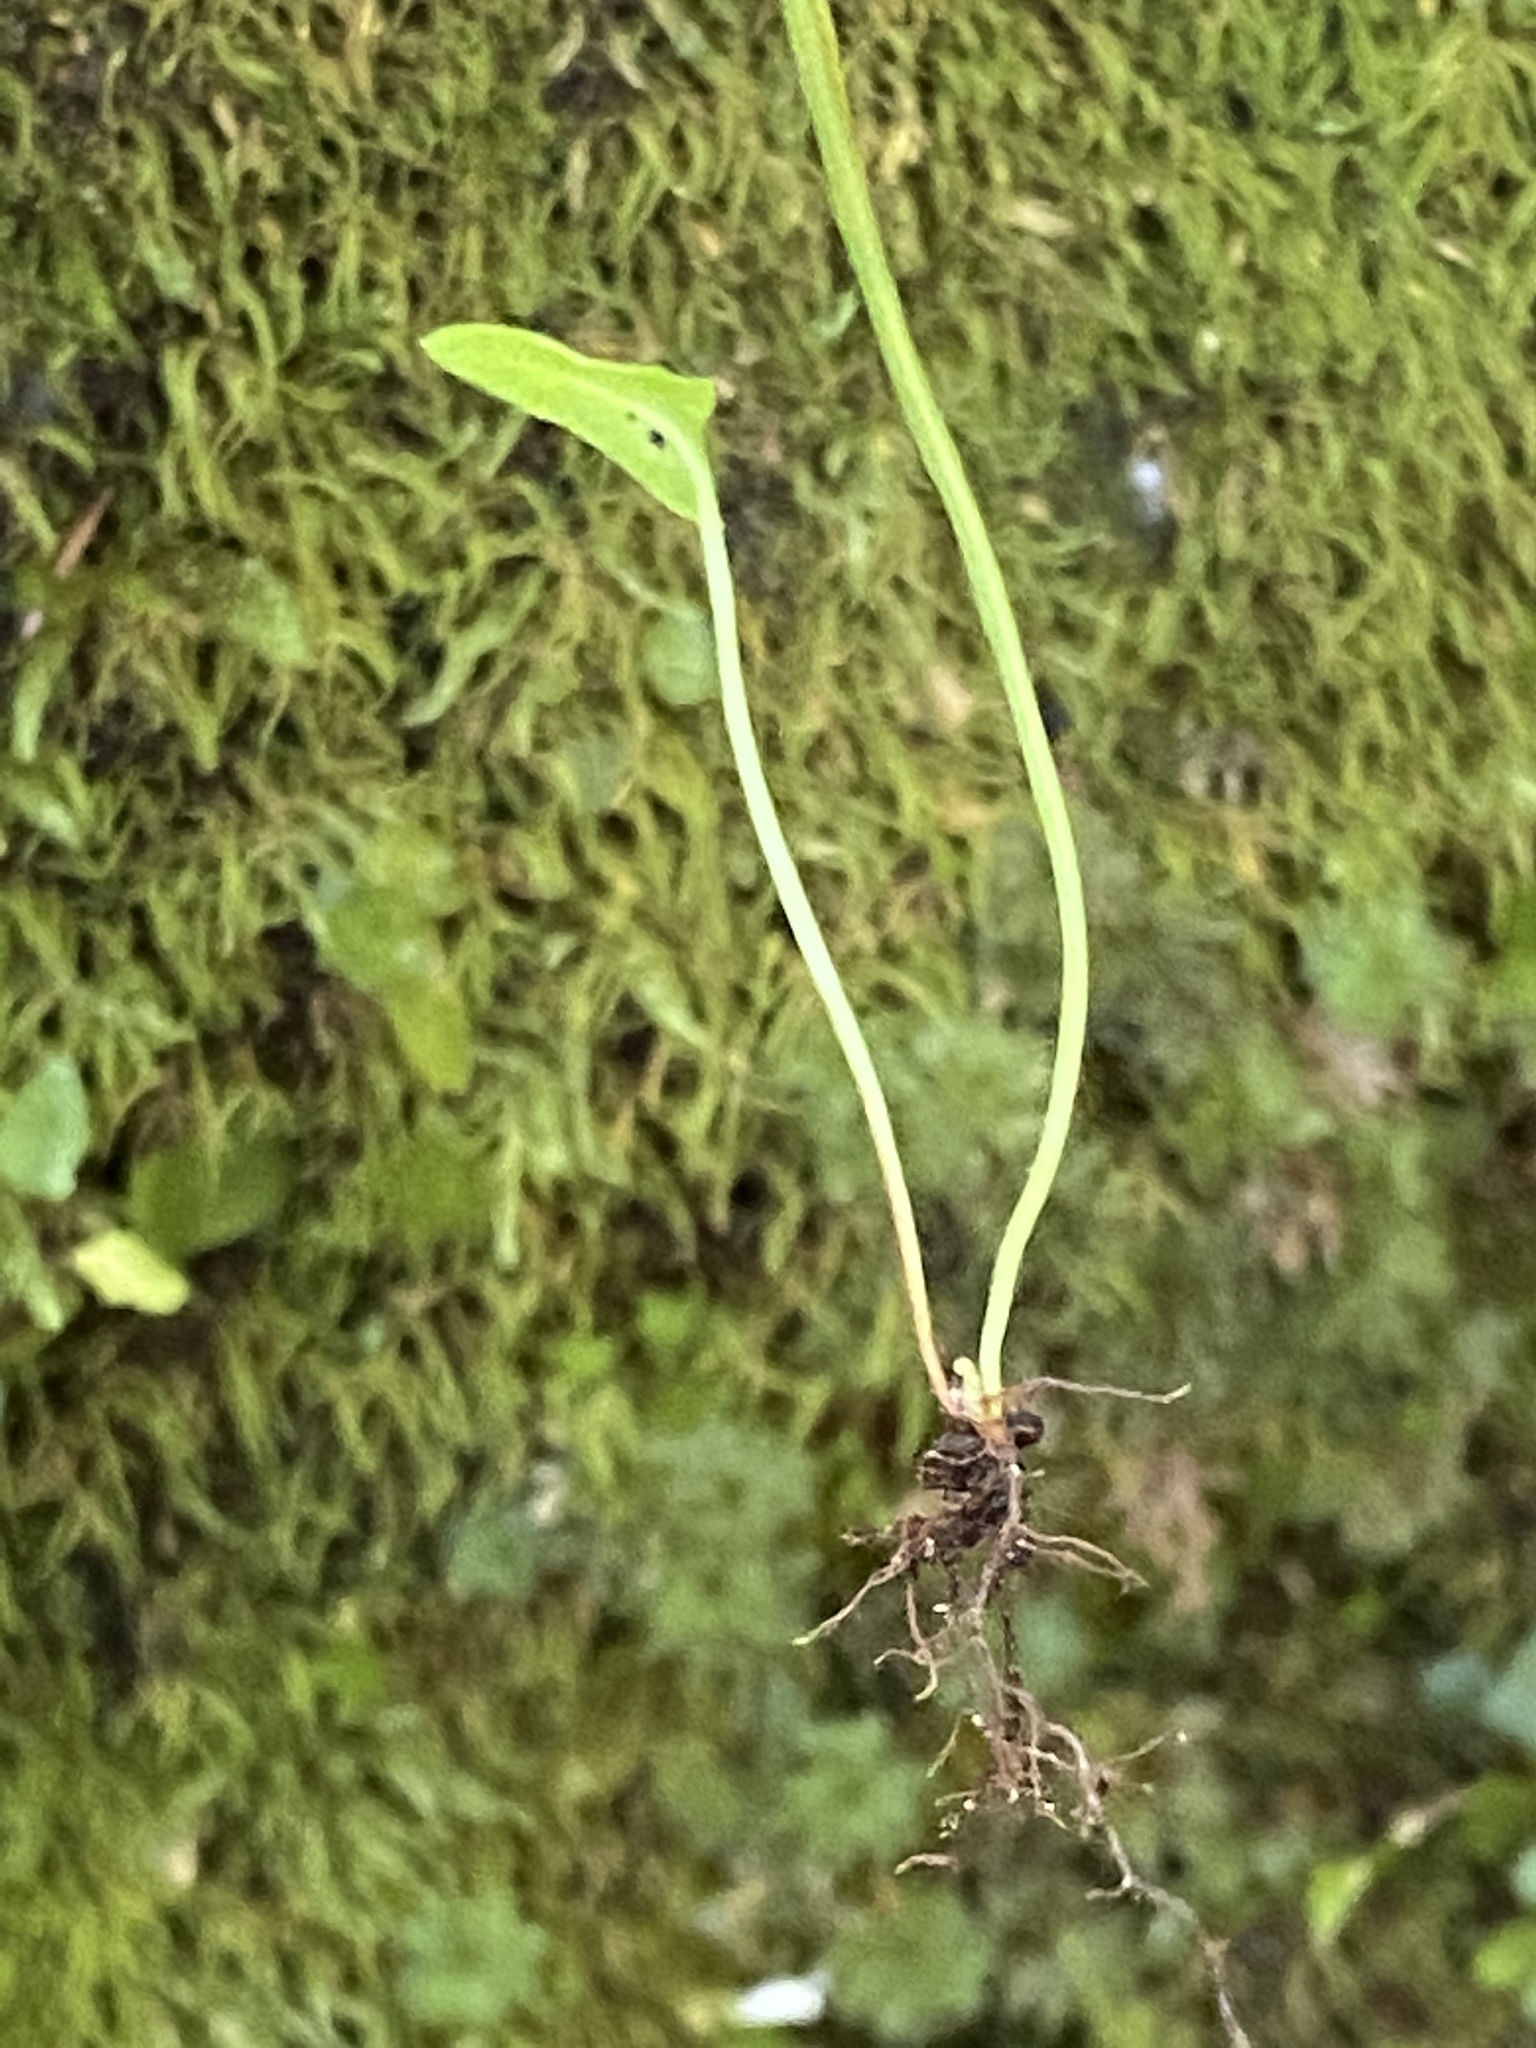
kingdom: Plantae
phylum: Tracheophyta
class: Polypodiopsida
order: Polypodiales
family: Aspleniaceae
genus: Asplenium
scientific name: Asplenium rhizophyllum
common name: Walking fern
